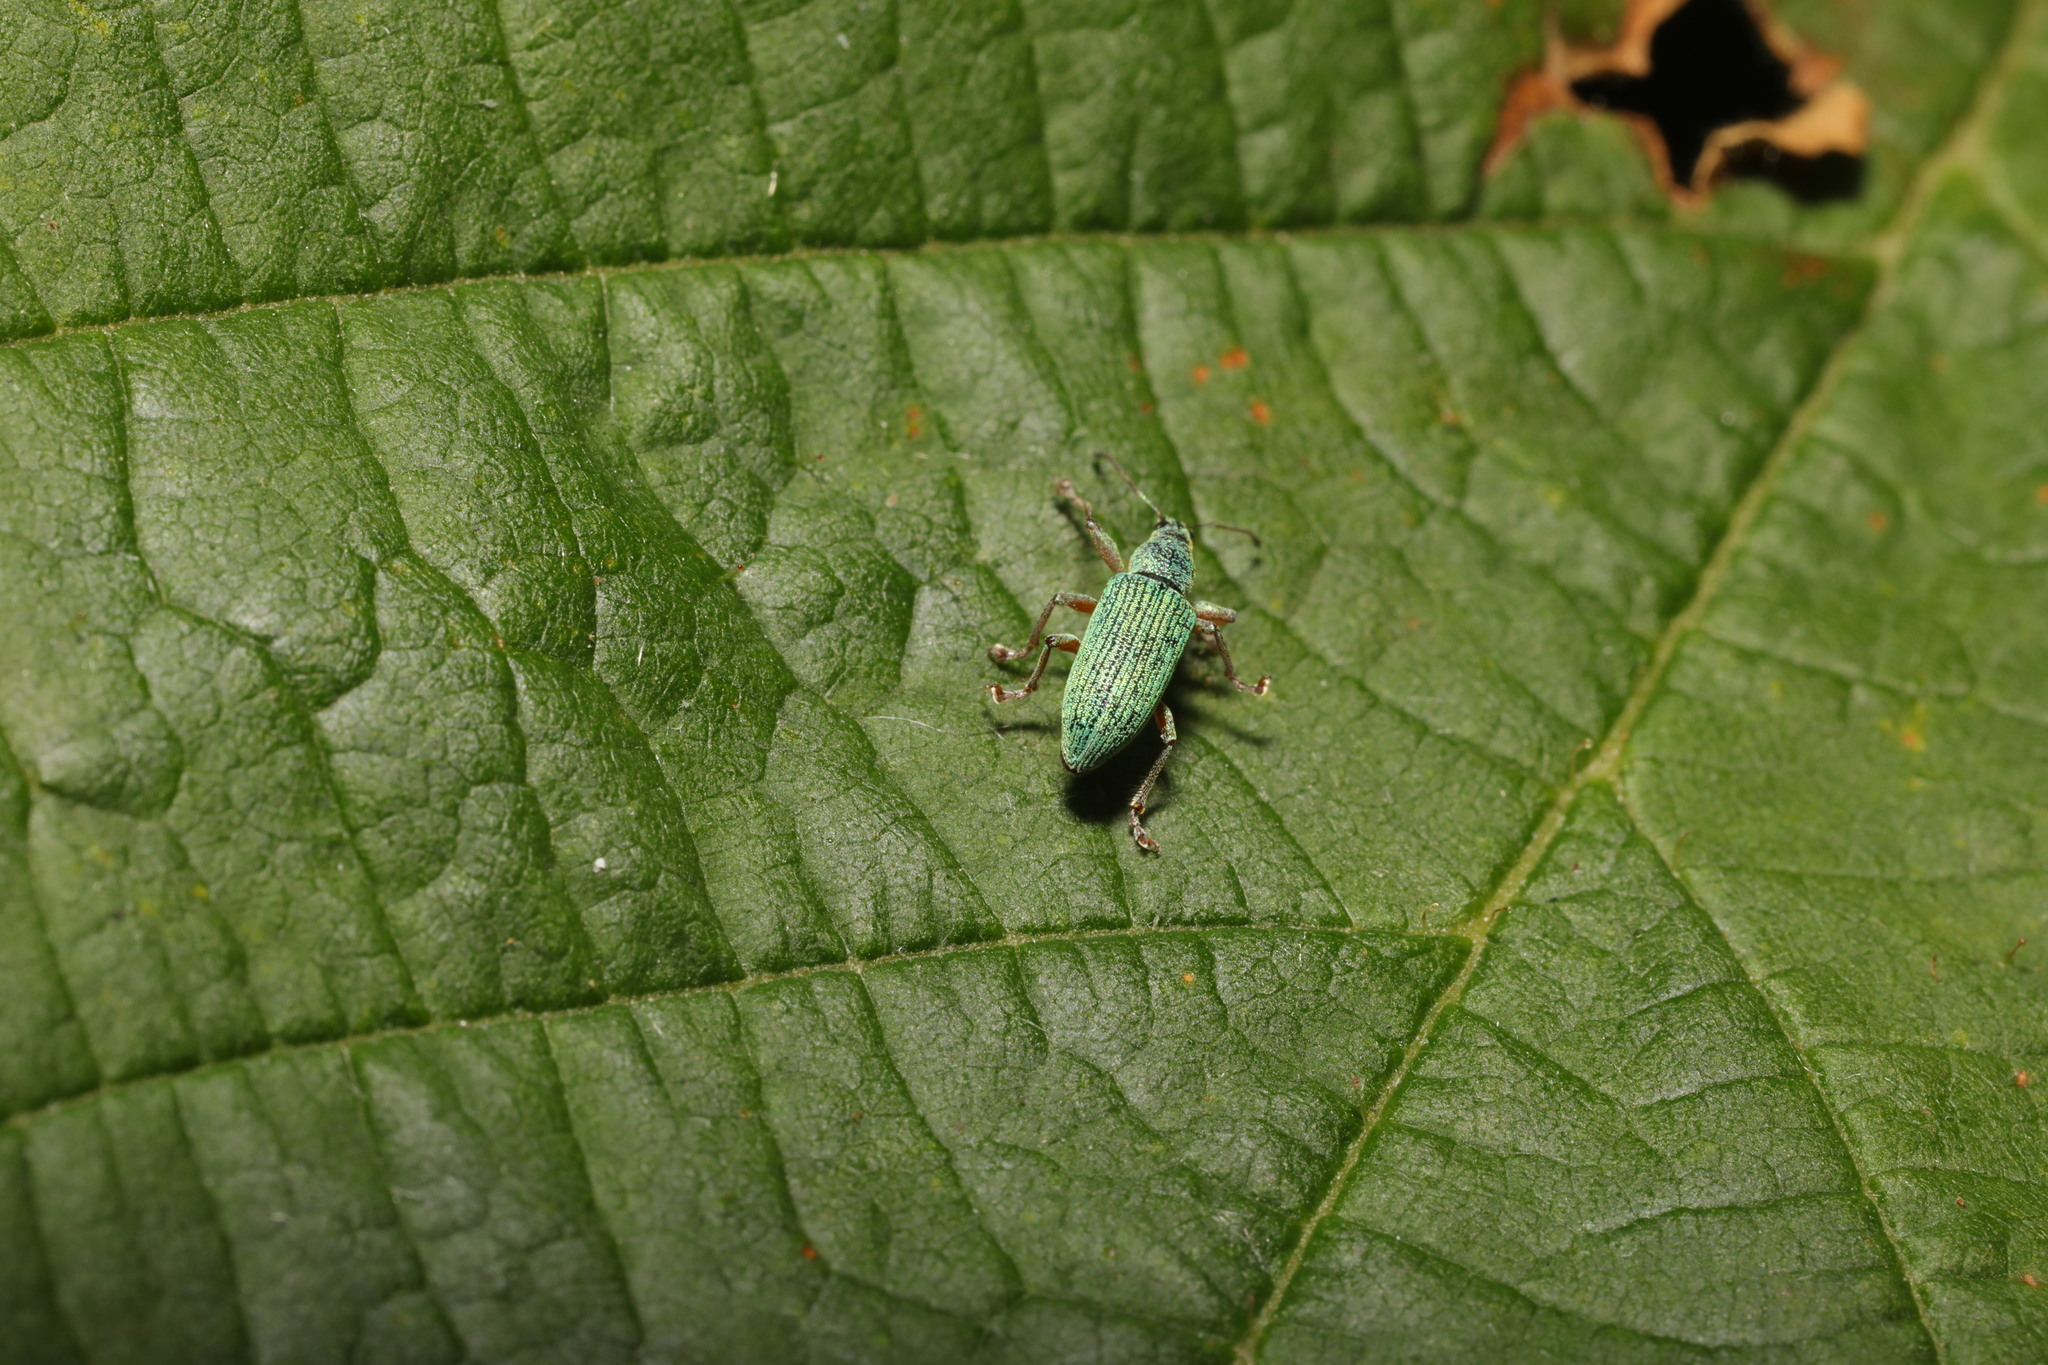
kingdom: Animalia
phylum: Arthropoda
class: Insecta
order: Coleoptera
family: Curculionidae
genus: Polydrusus
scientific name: Polydrusus formosus
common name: Weevil
